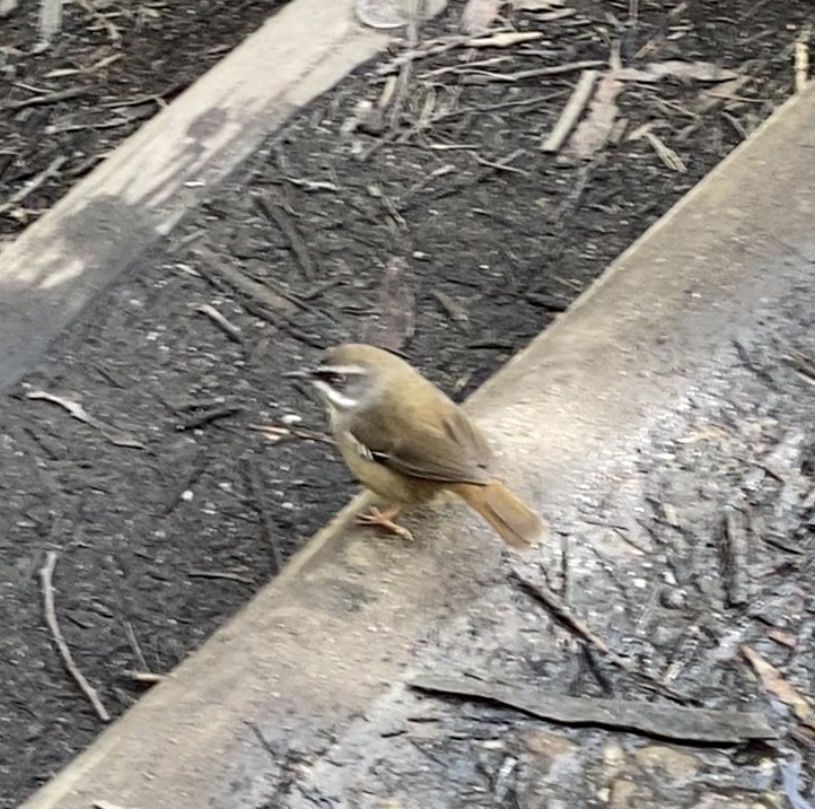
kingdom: Animalia
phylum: Chordata
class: Aves
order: Passeriformes
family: Acanthizidae
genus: Sericornis
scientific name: Sericornis frontalis
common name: White-browed scrubwren
